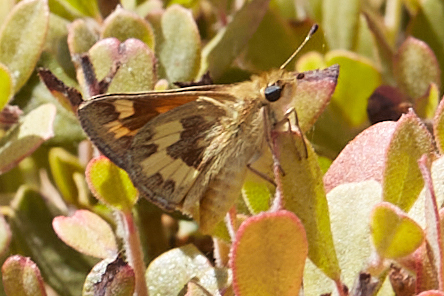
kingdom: Animalia
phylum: Arthropoda
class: Insecta
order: Lepidoptera
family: Hesperiidae
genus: Ochlodes
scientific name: Ochlodes sylvanoides
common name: Woodland skipper
